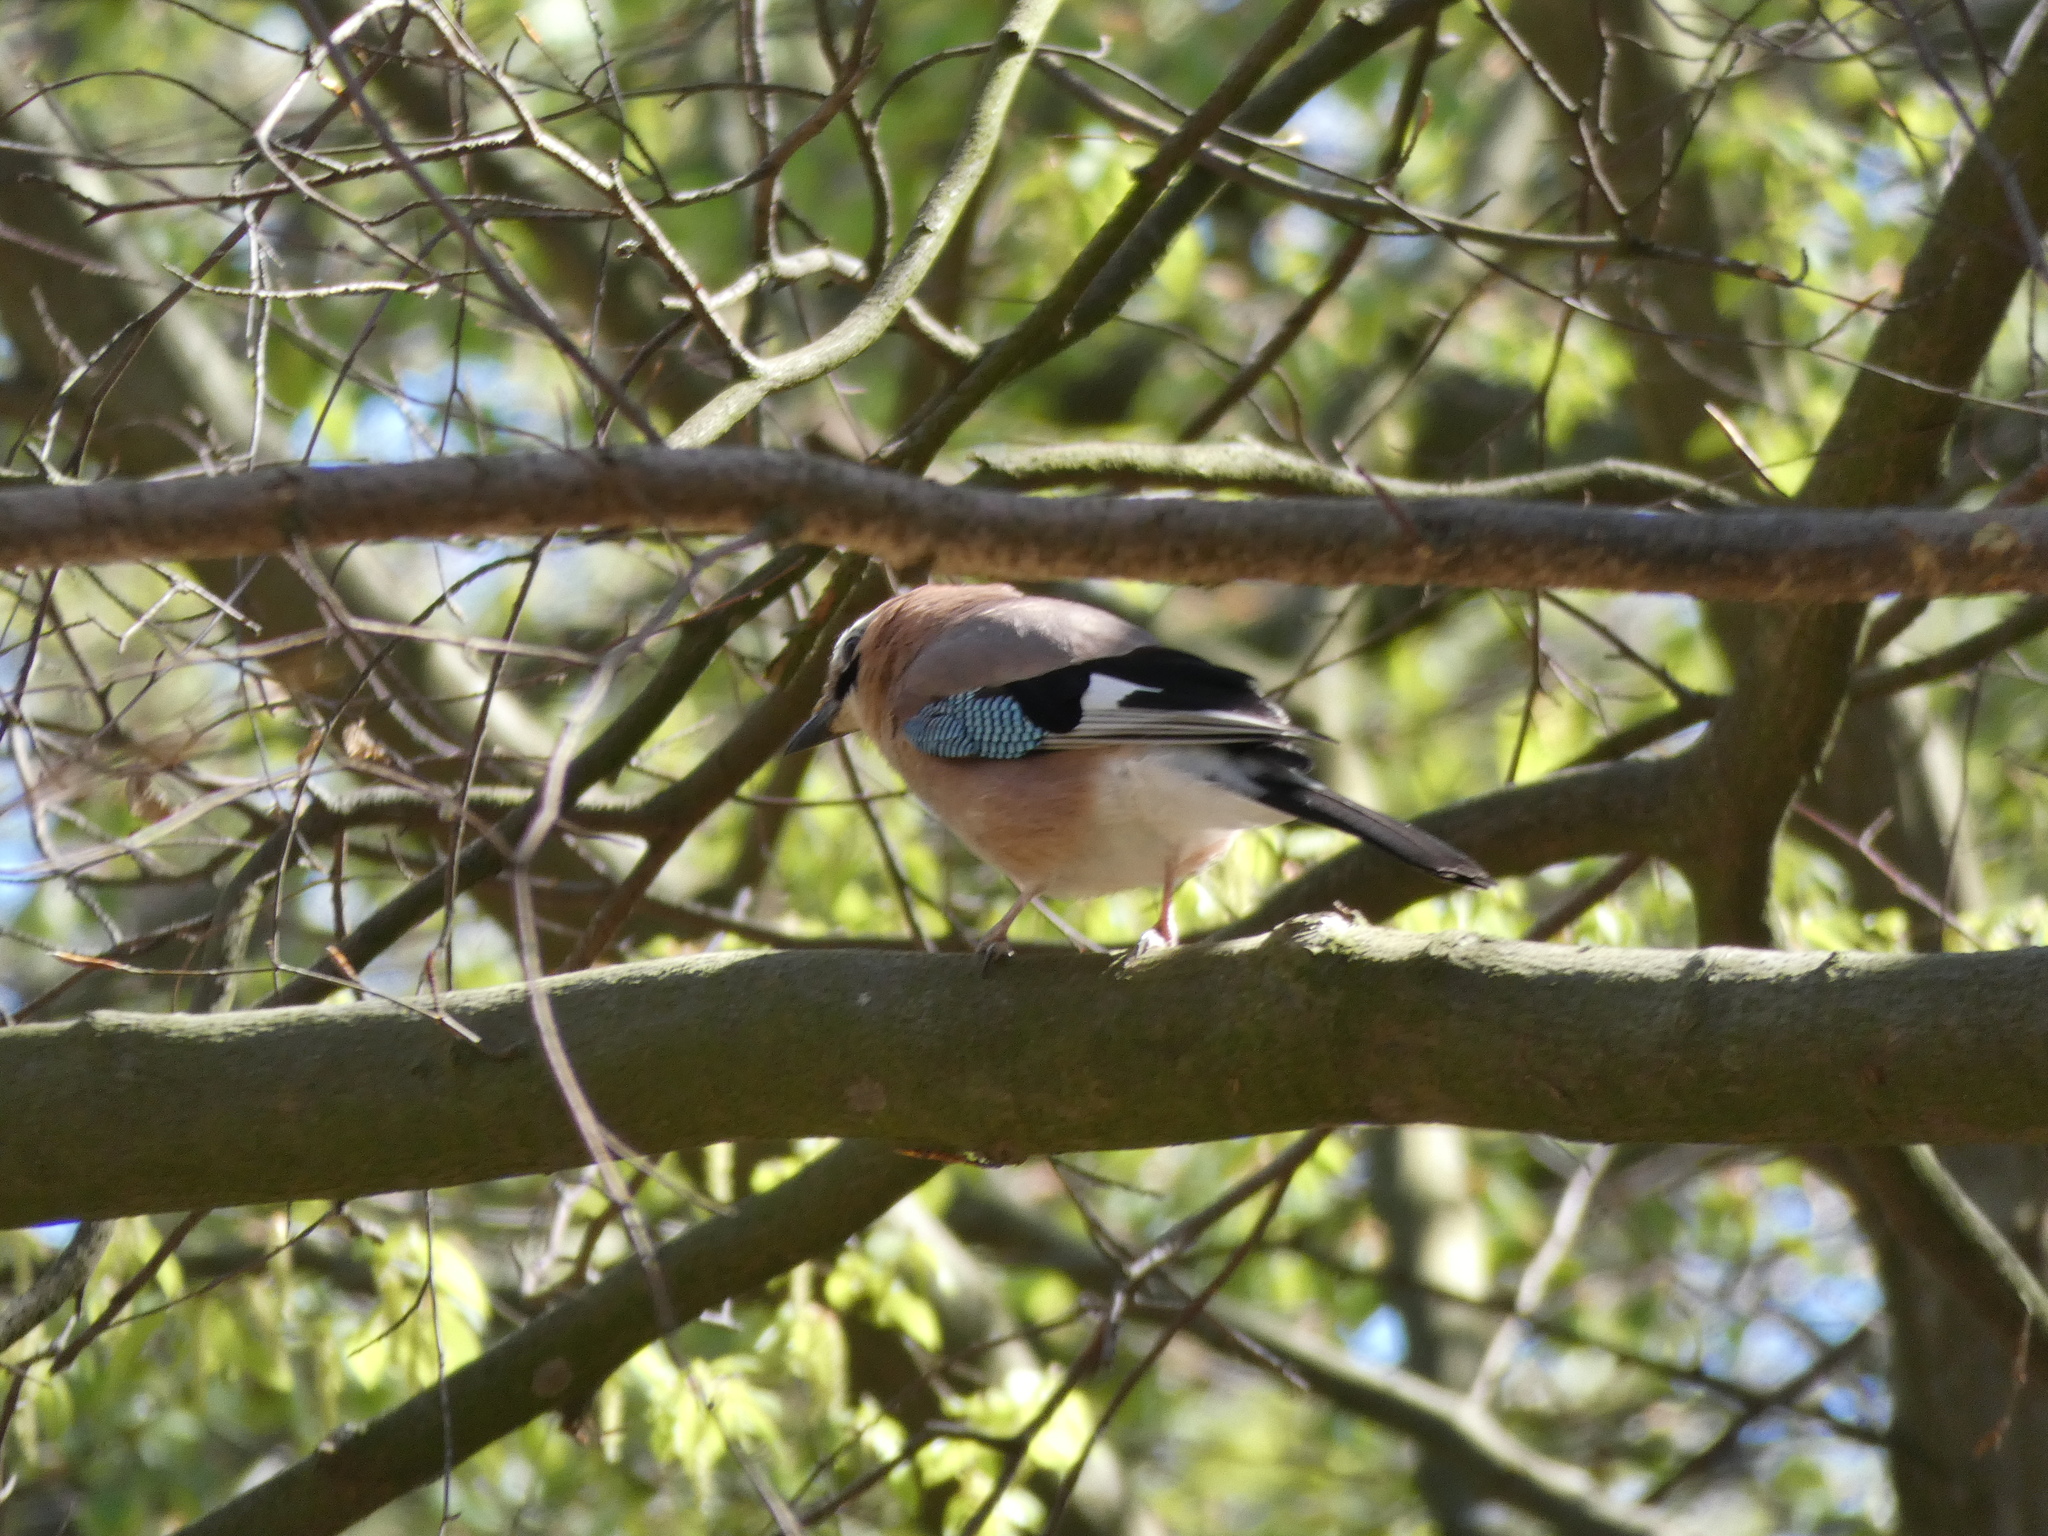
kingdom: Animalia
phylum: Chordata
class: Aves
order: Passeriformes
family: Corvidae
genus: Garrulus
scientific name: Garrulus glandarius
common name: Eurasian jay
